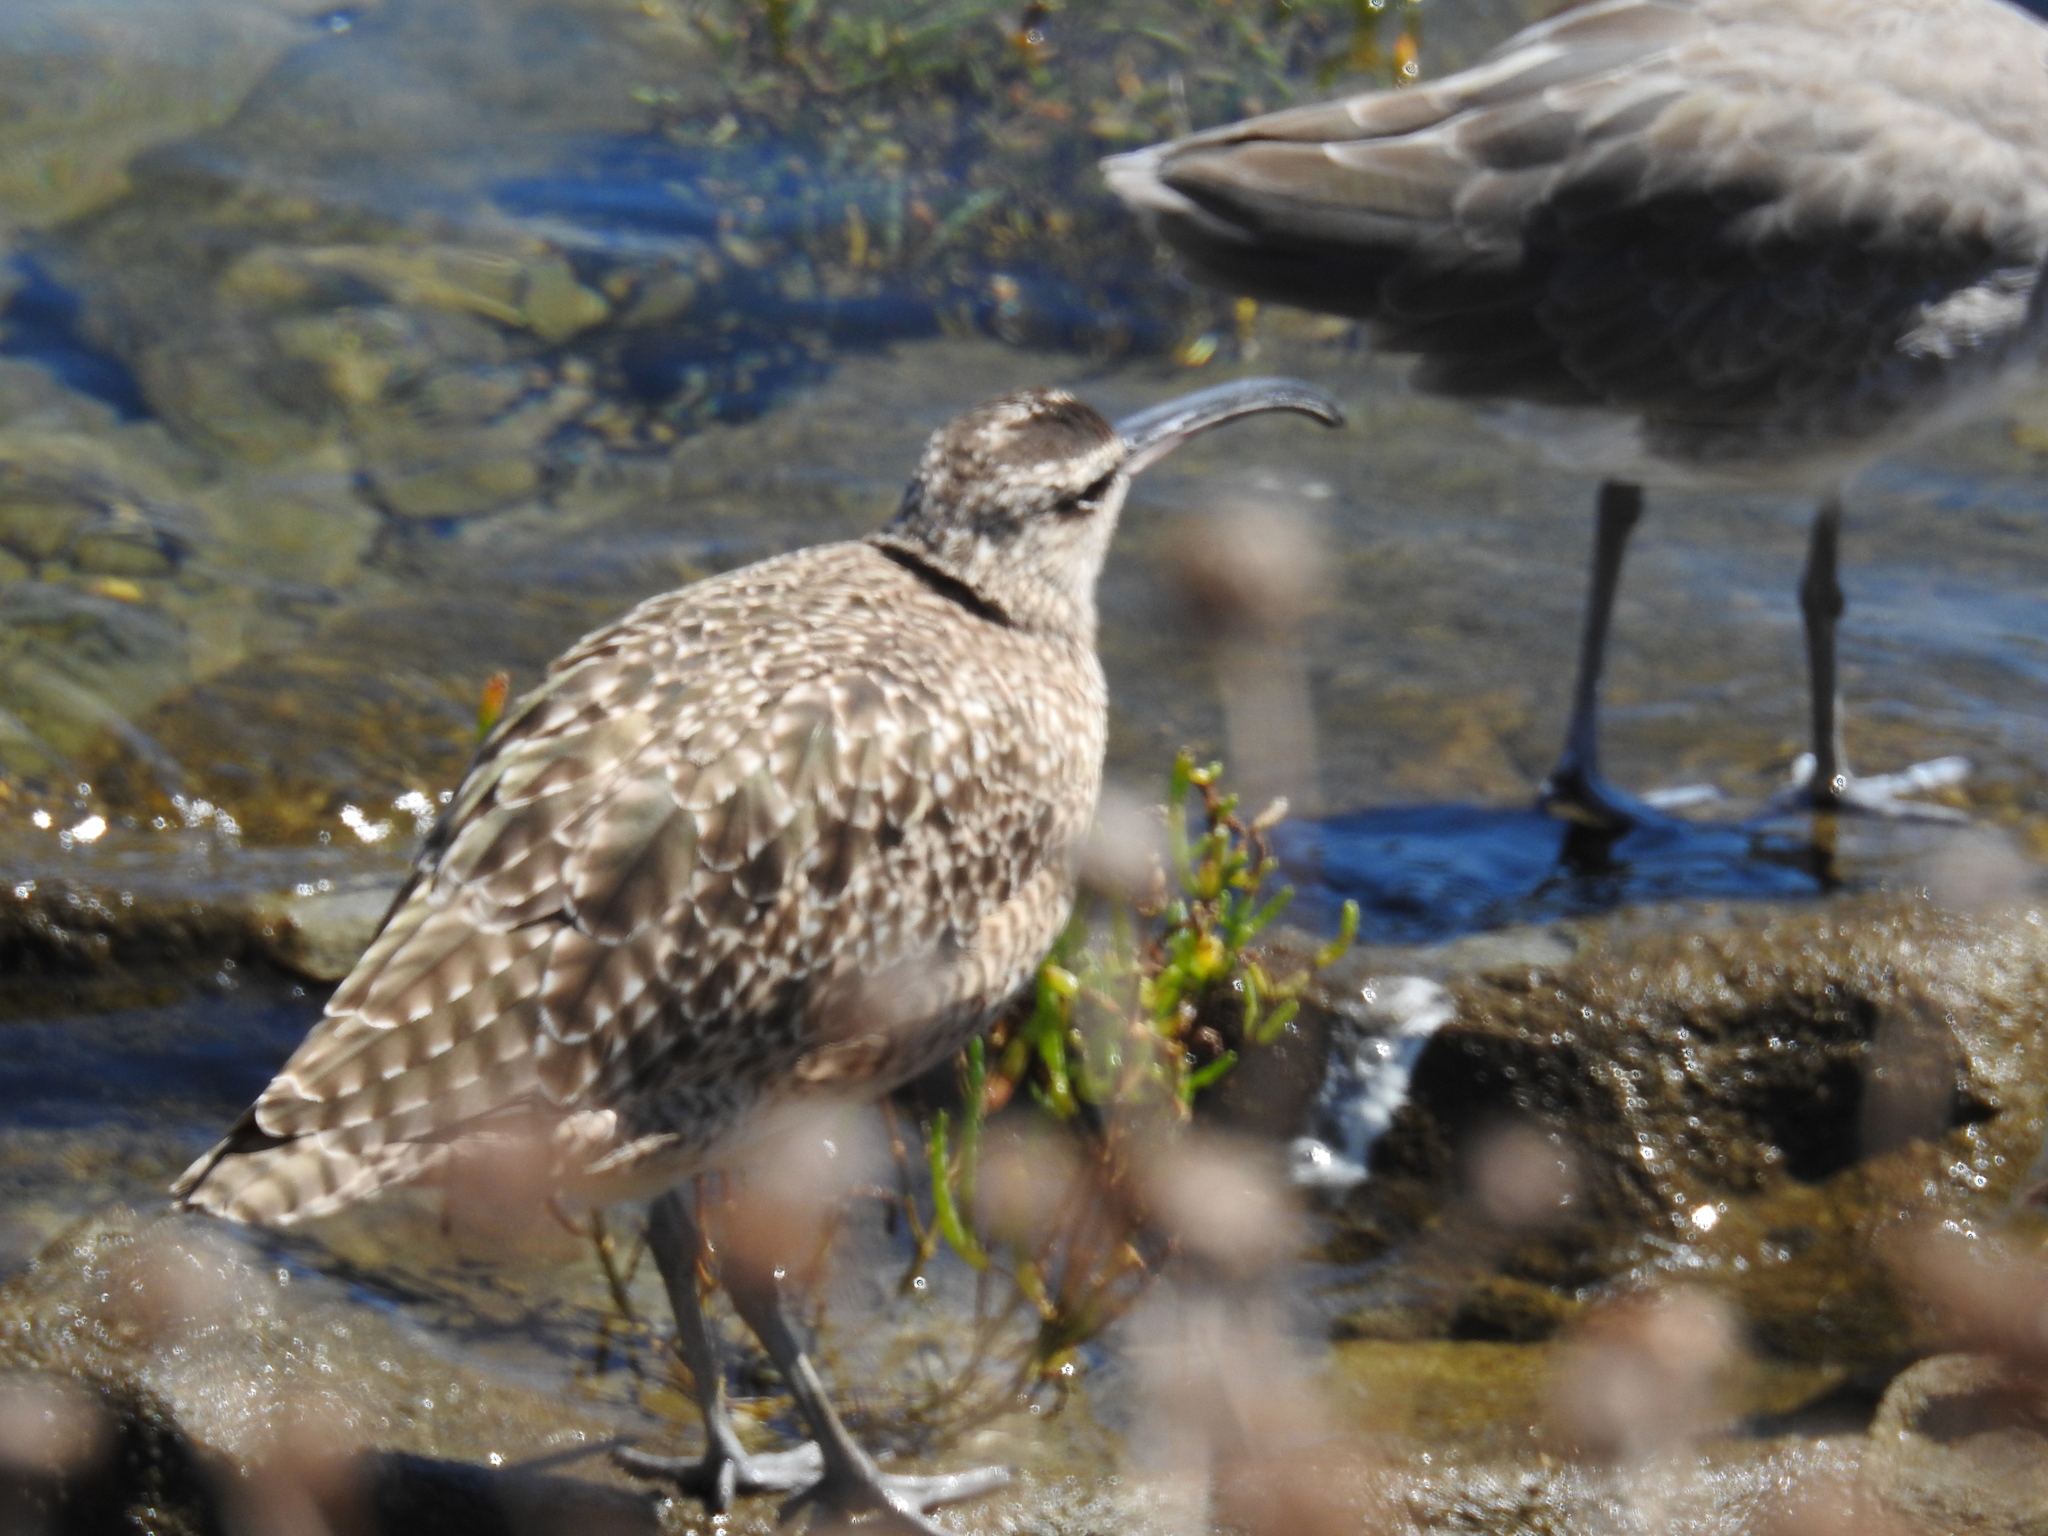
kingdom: Animalia
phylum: Chordata
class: Aves
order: Charadriiformes
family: Scolopacidae
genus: Numenius
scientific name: Numenius phaeopus
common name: Whimbrel
